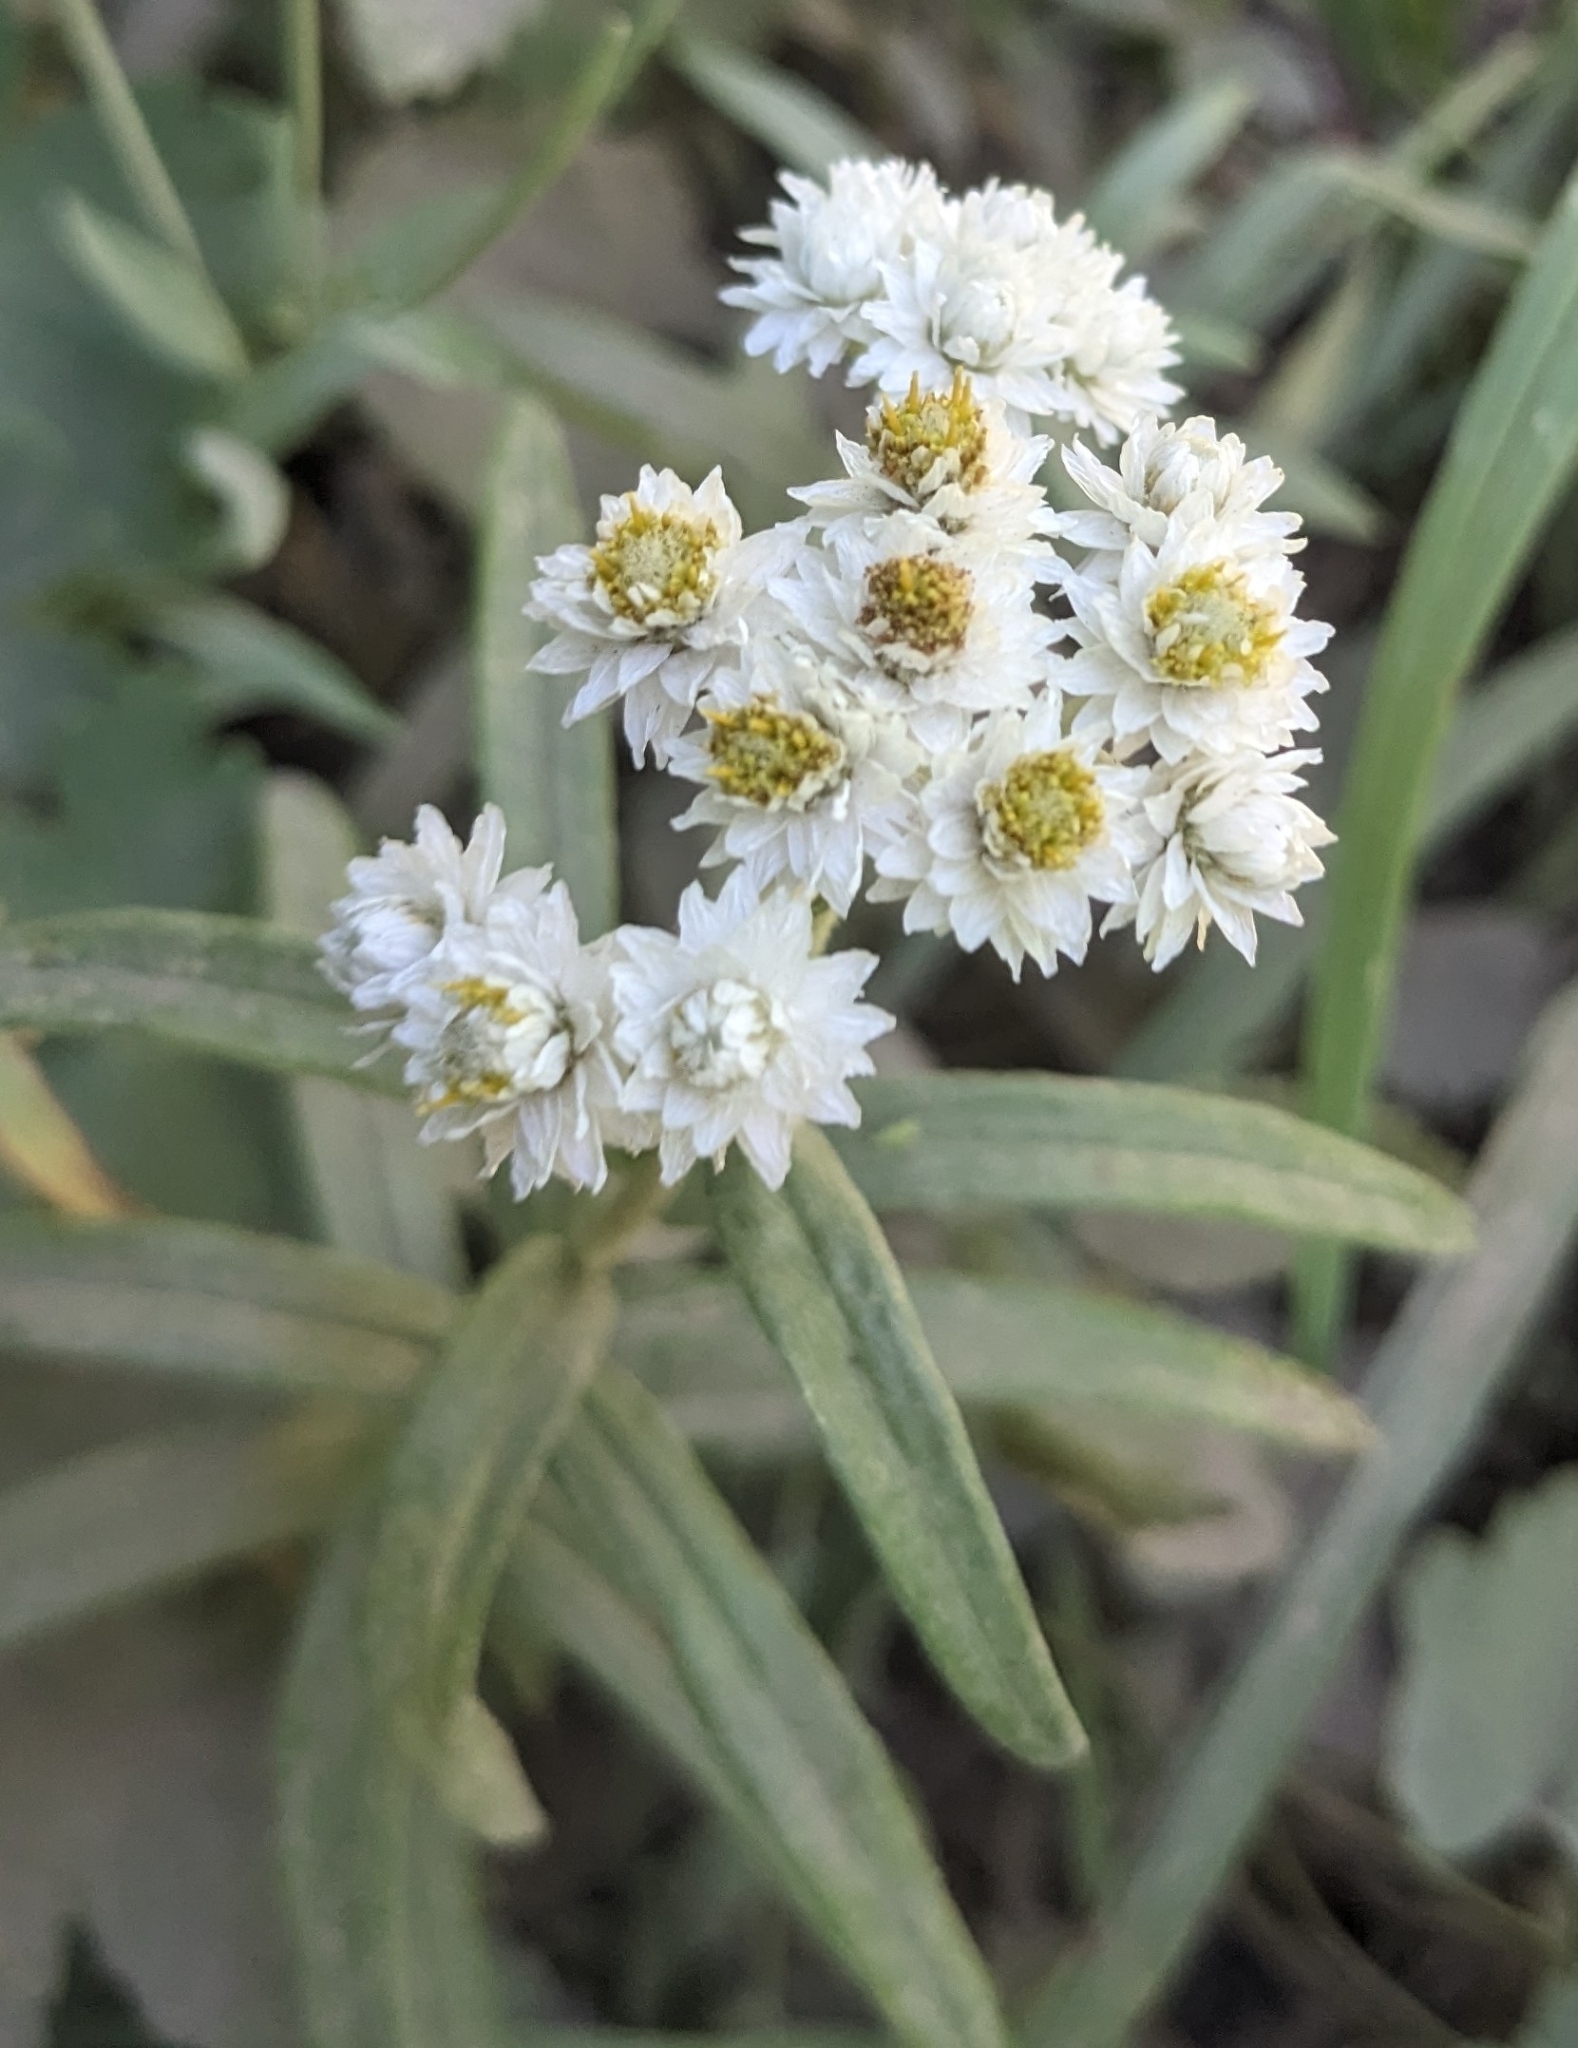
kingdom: Plantae
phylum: Tracheophyta
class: Magnoliopsida
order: Asterales
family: Asteraceae
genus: Anaphalis
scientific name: Anaphalis margaritacea
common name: Pearly everlasting
